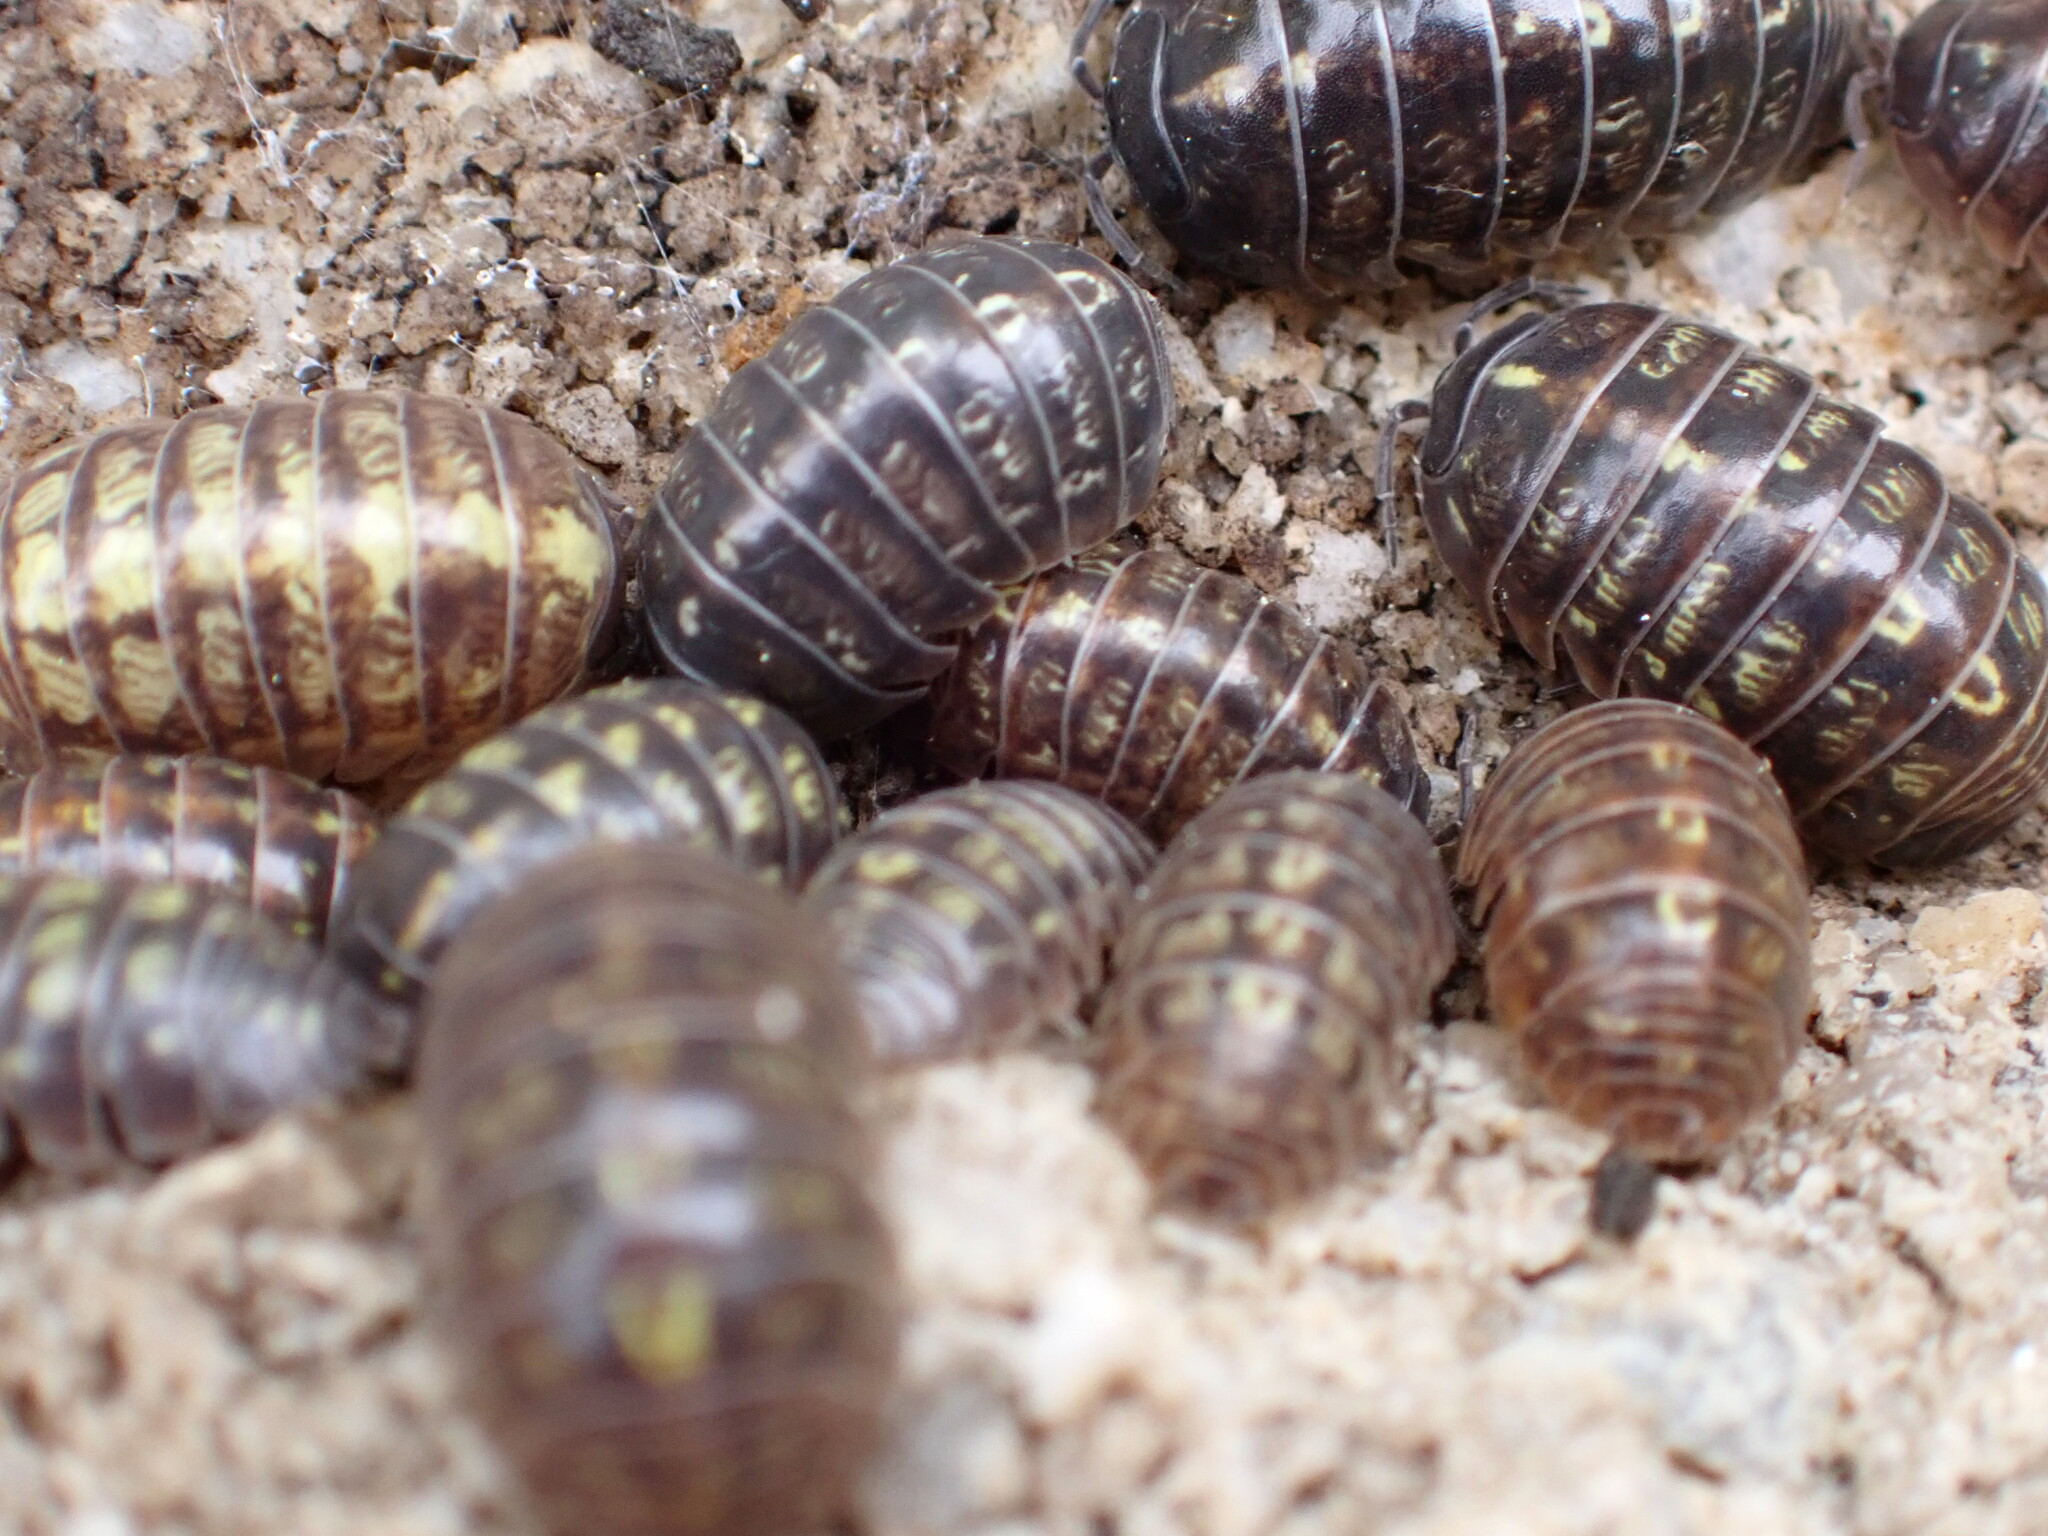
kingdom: Animalia
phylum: Arthropoda
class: Malacostraca
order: Isopoda
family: Armadillidiidae
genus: Armadillidium
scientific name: Armadillidium vulgare
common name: Common pill woodlouse
